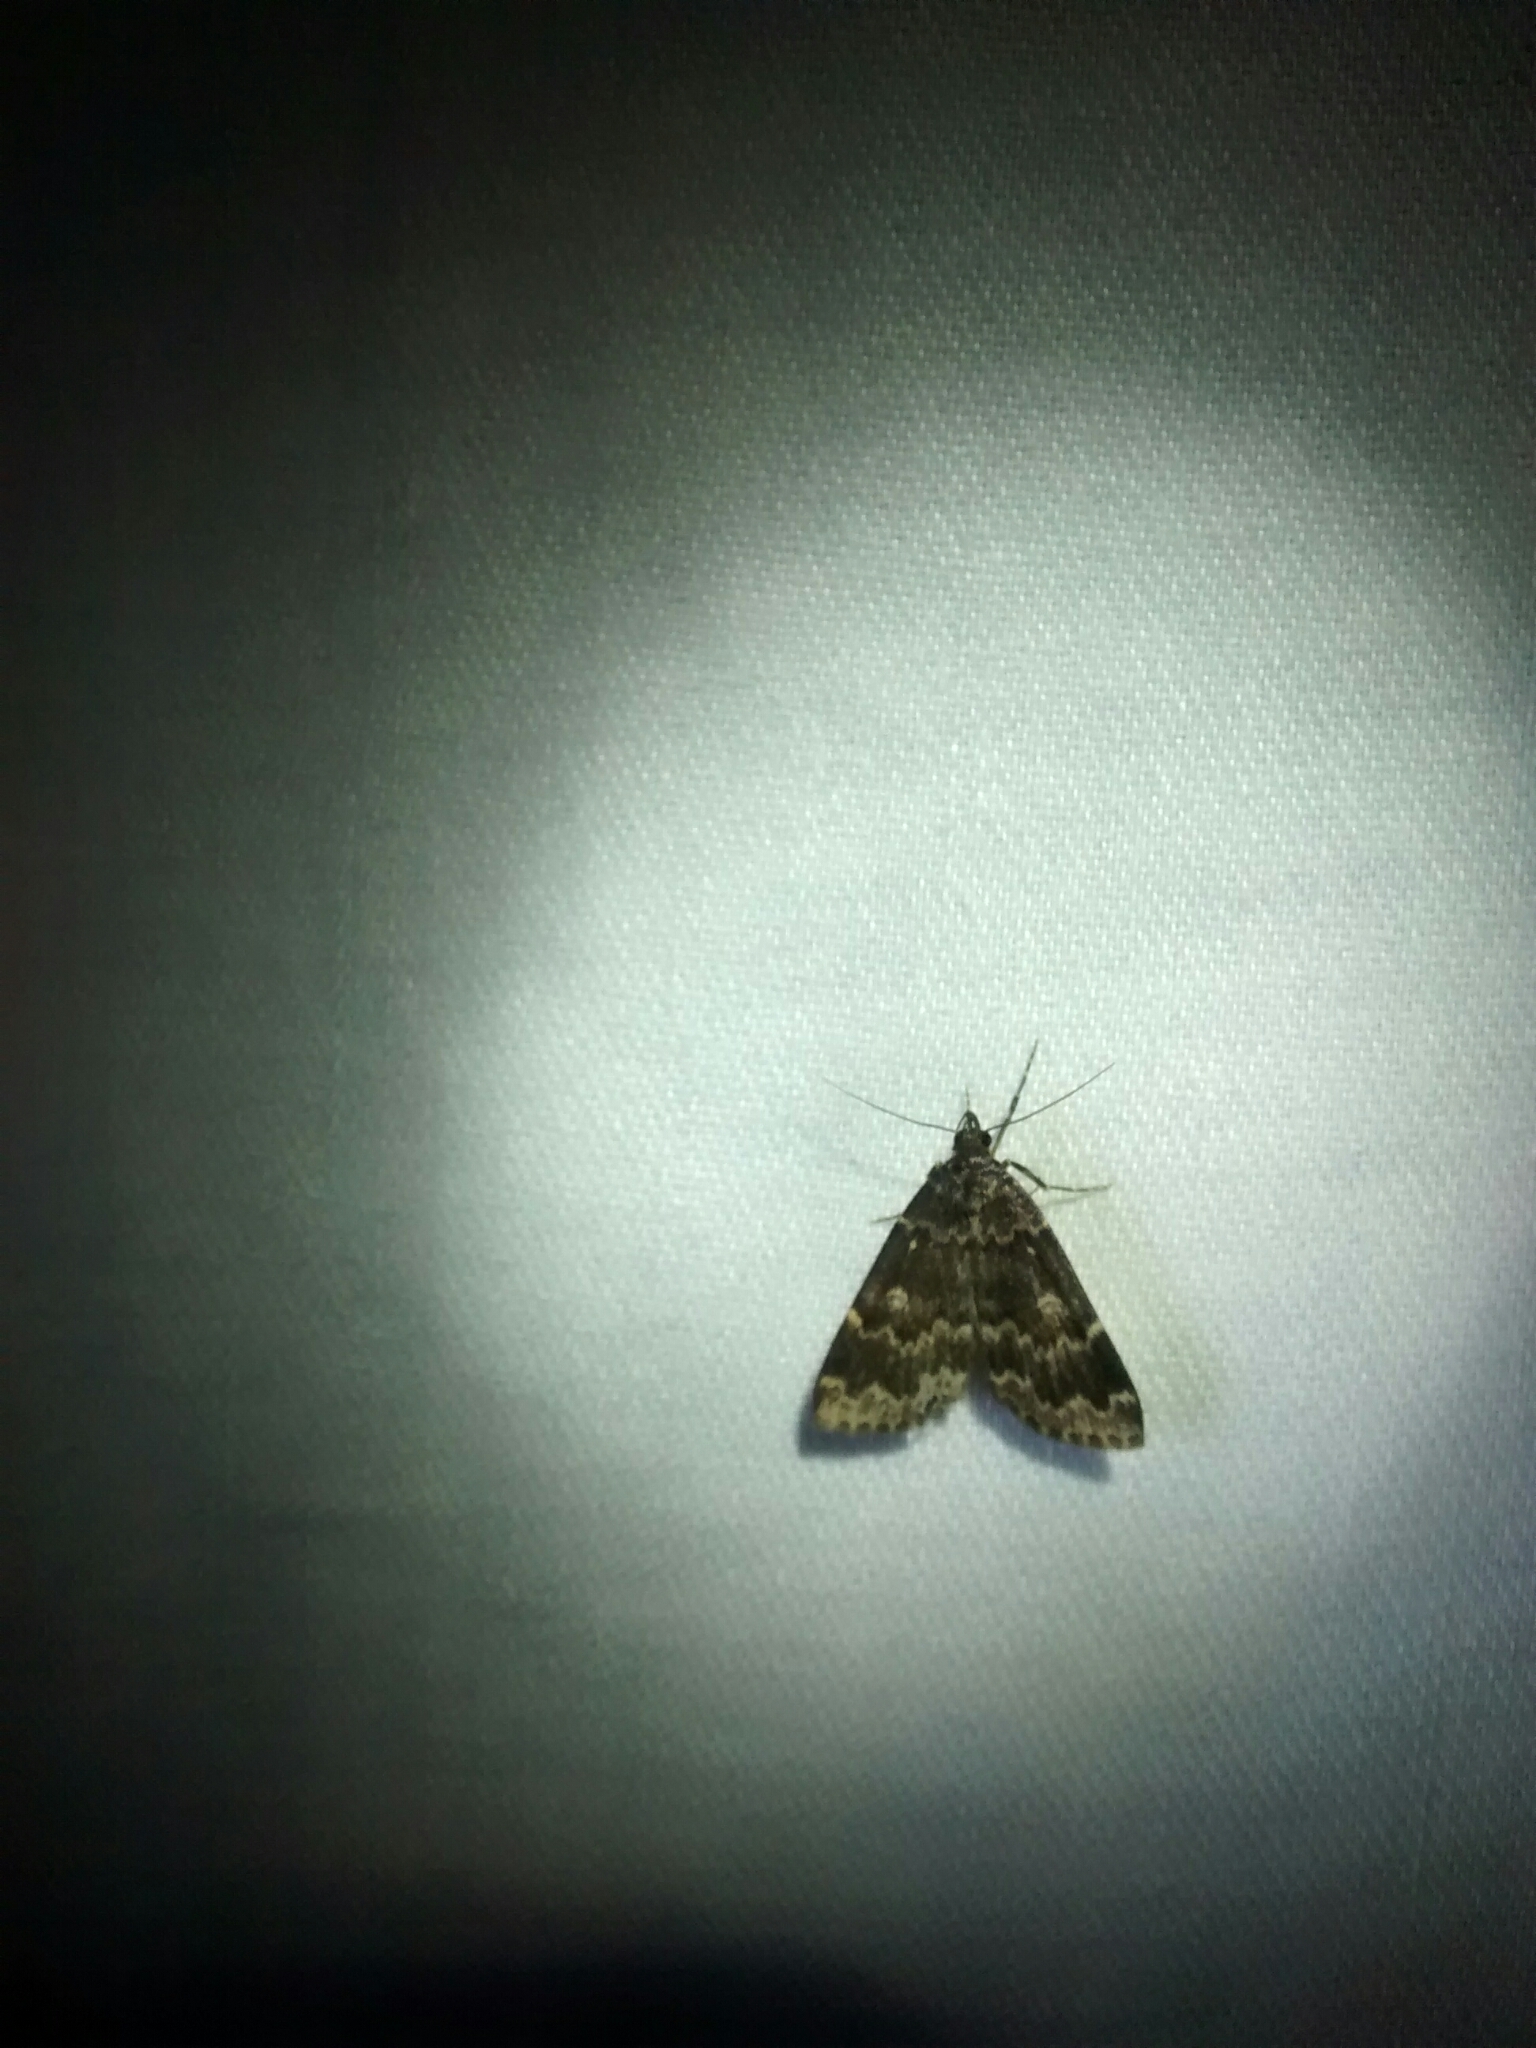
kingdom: Animalia
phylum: Arthropoda
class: Insecta
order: Lepidoptera
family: Erebidae
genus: Idia
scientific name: Idia lubricalis
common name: Twin-striped tabby
